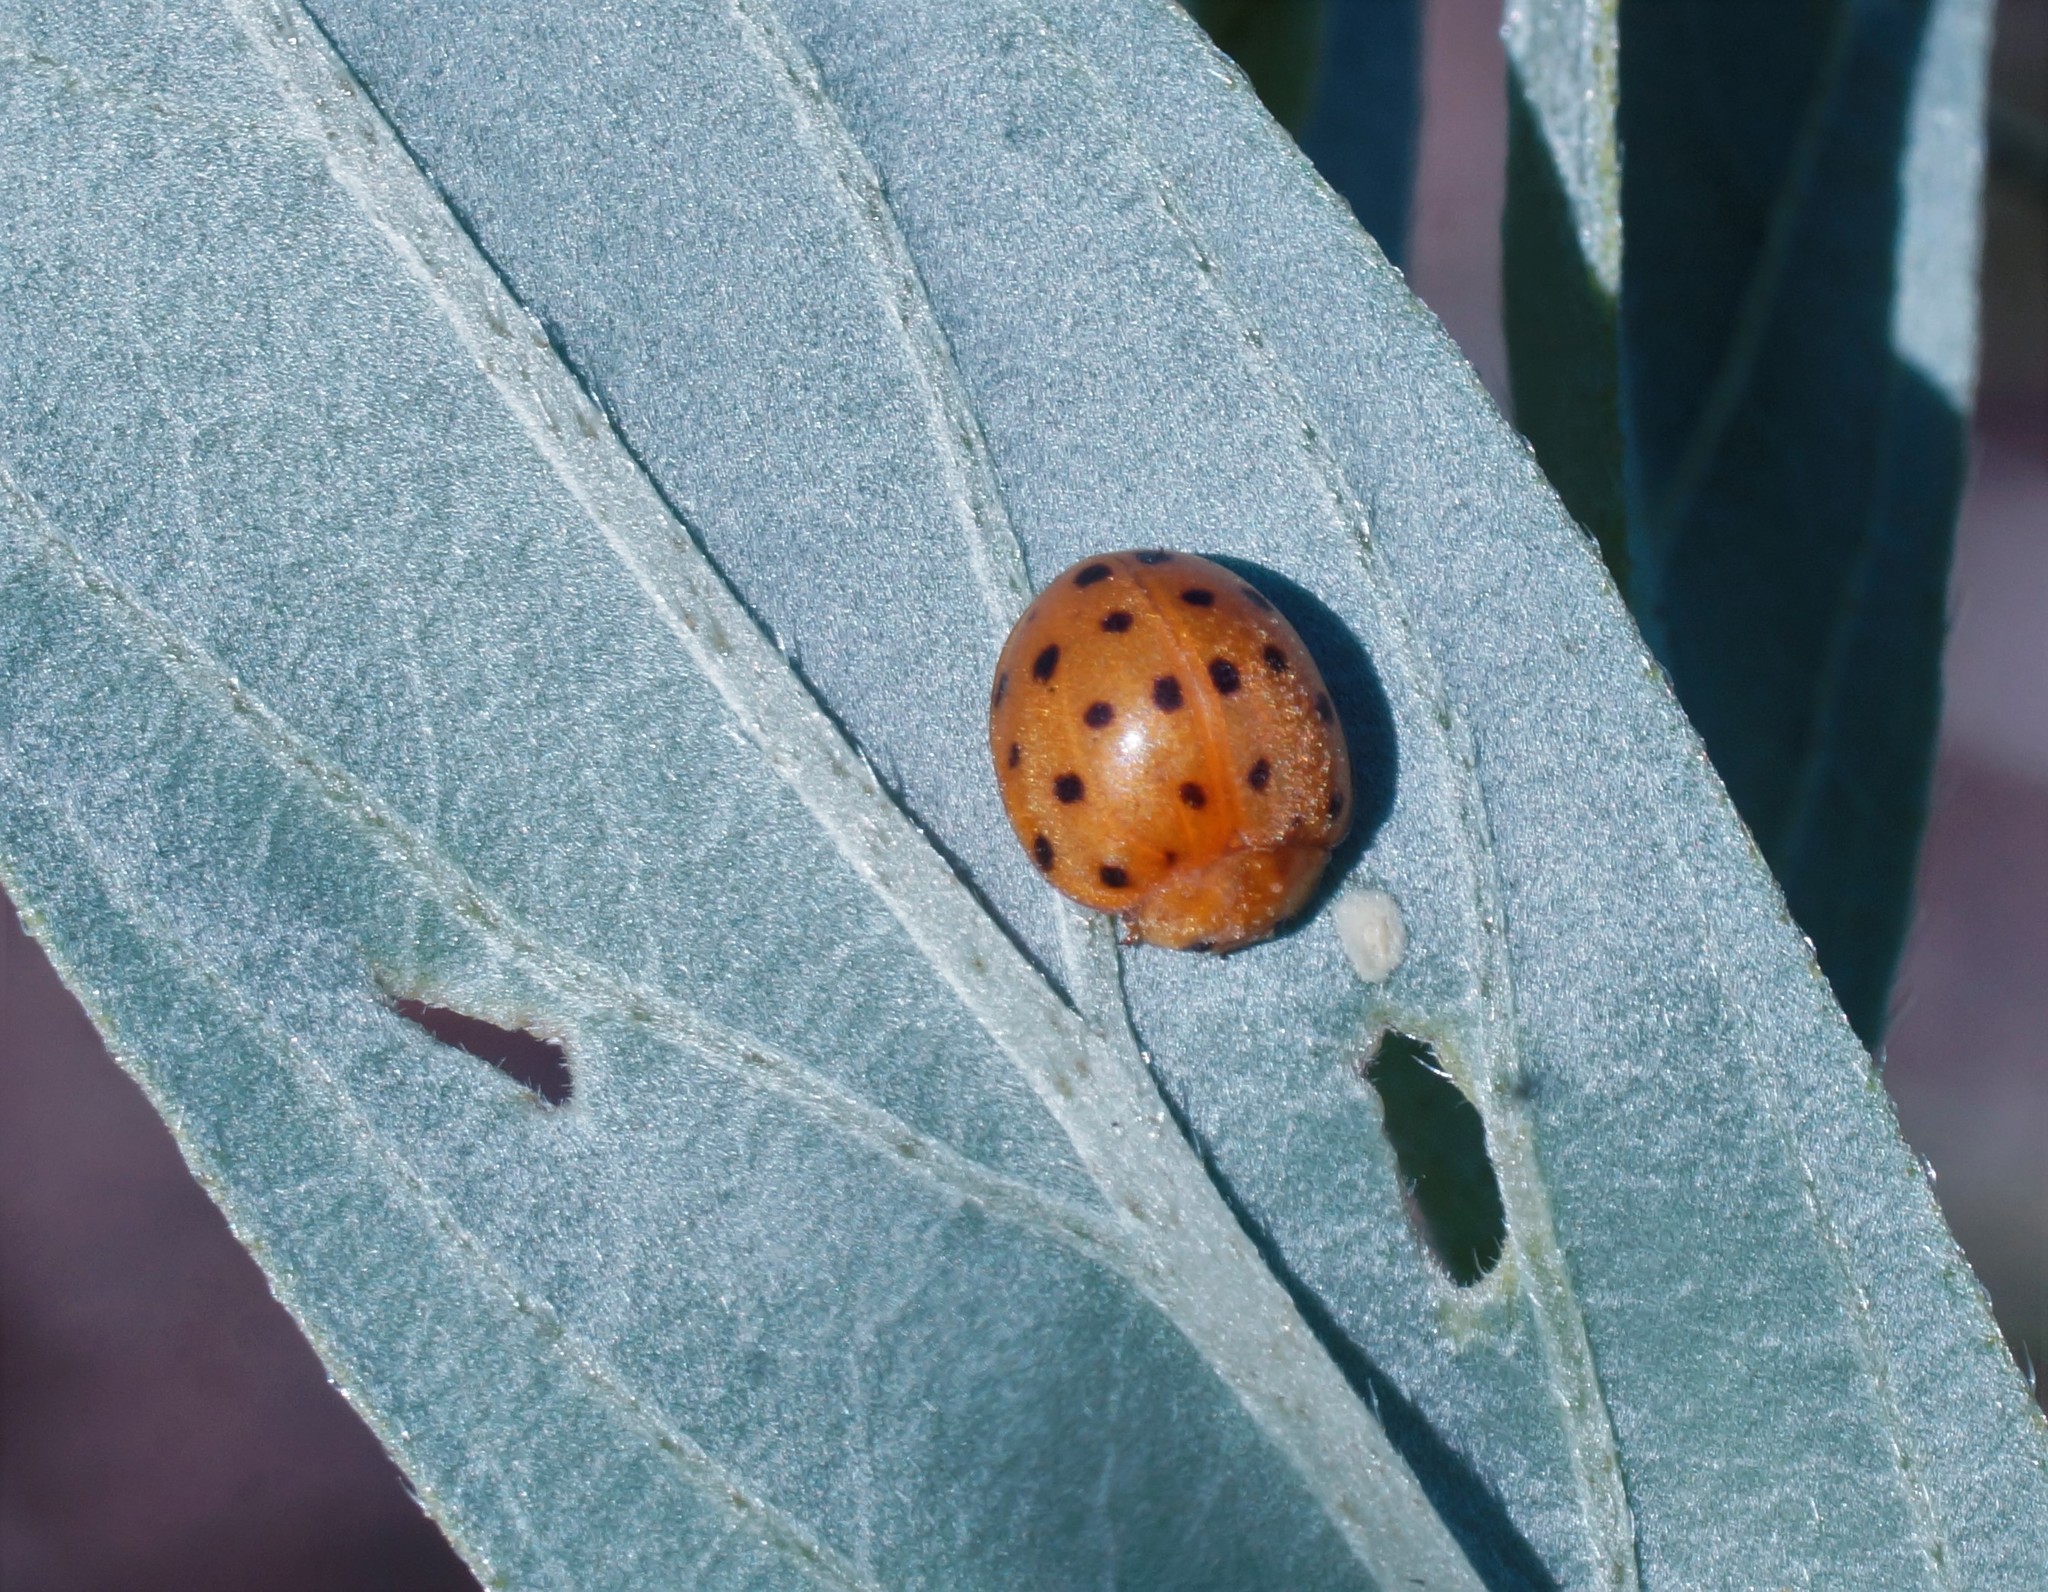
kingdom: Animalia
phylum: Arthropoda
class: Insecta
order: Coleoptera
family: Coccinellidae
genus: Henosepilachna
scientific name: Henosepilachna sumbana
